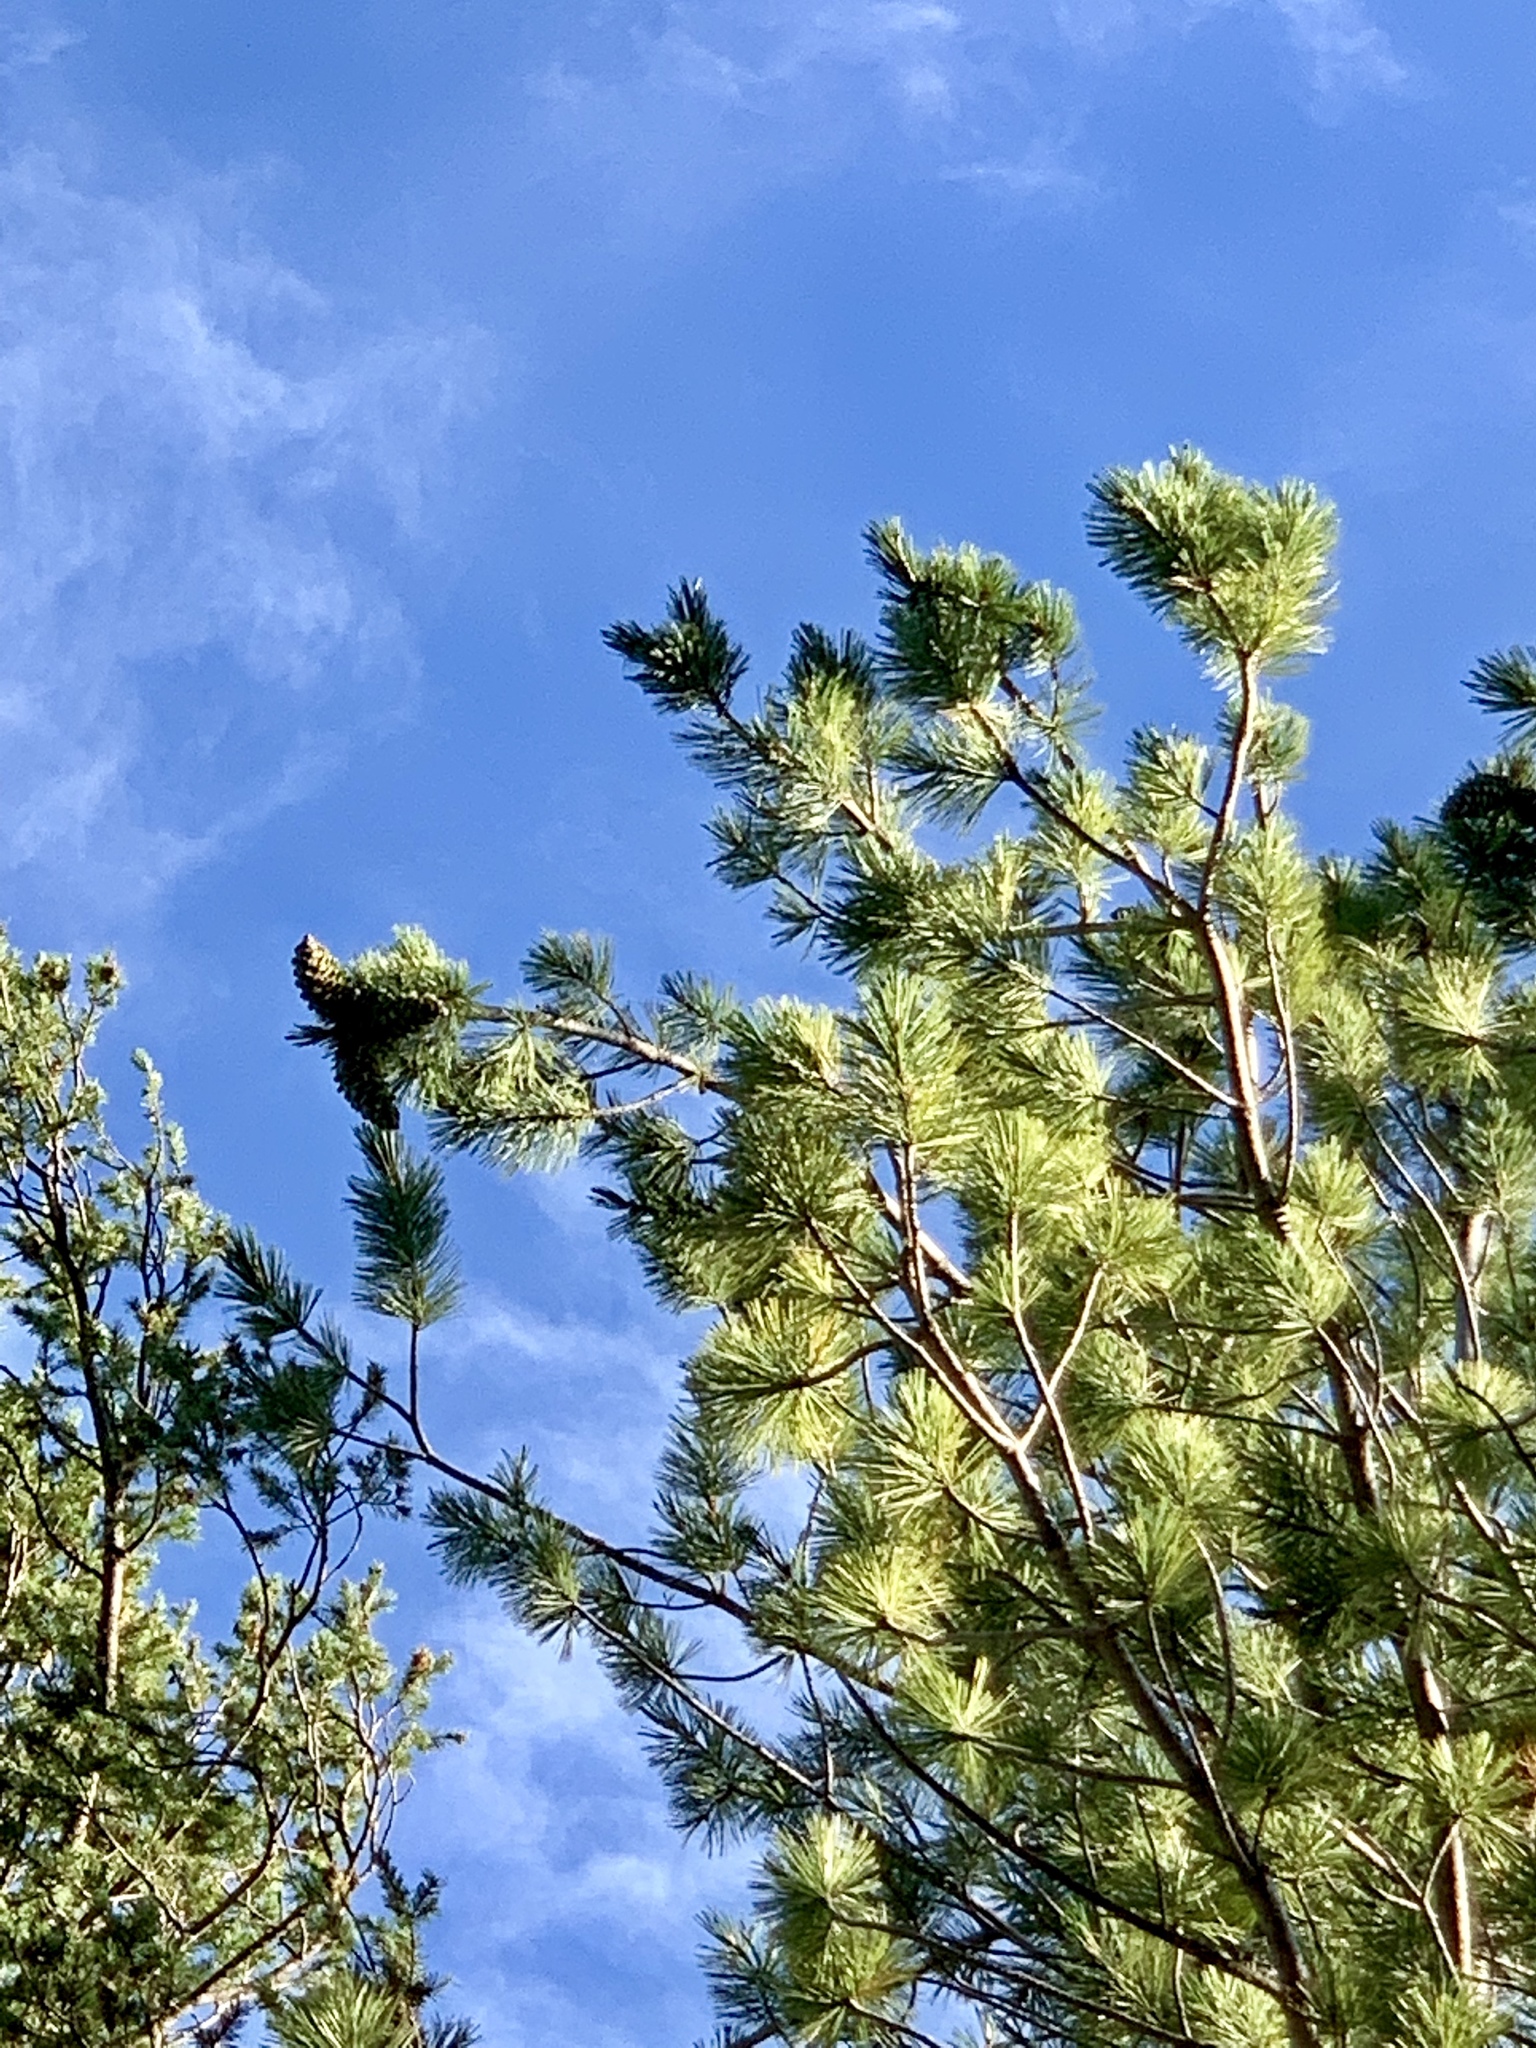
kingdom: Plantae
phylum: Tracheophyta
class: Pinopsida
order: Pinales
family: Pinaceae
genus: Pinus
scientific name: Pinus strobiformis
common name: Southwestern white pine
